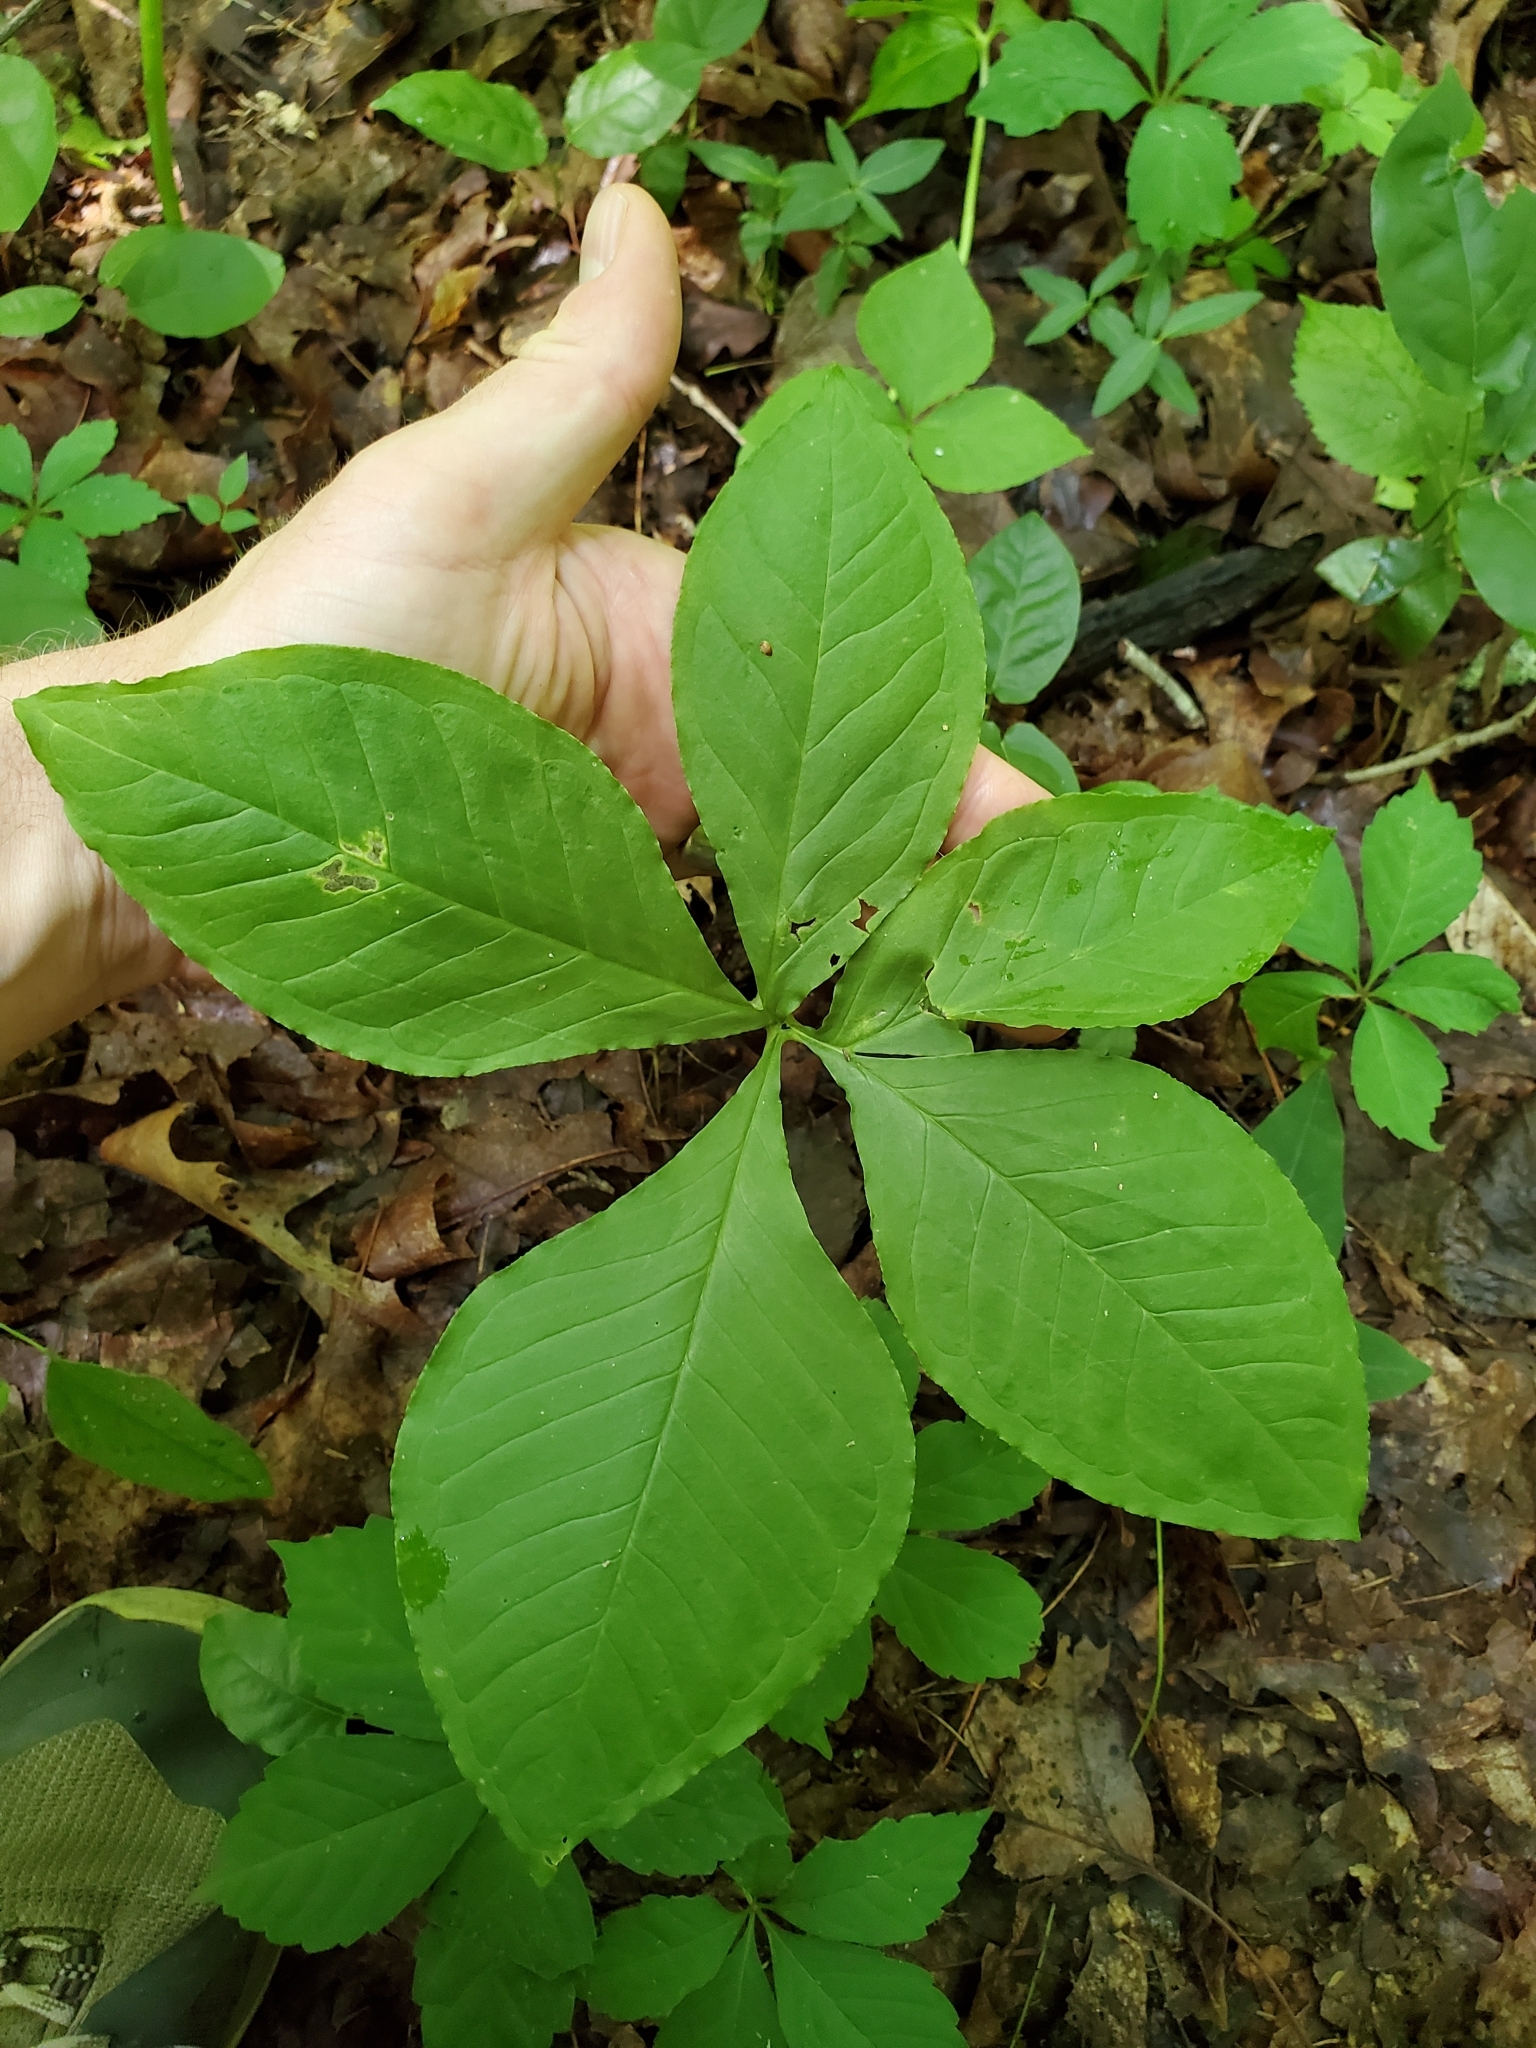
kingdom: Plantae
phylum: Tracheophyta
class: Liliopsida
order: Alismatales
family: Araceae
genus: Arisaema
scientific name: Arisaema quinatum
